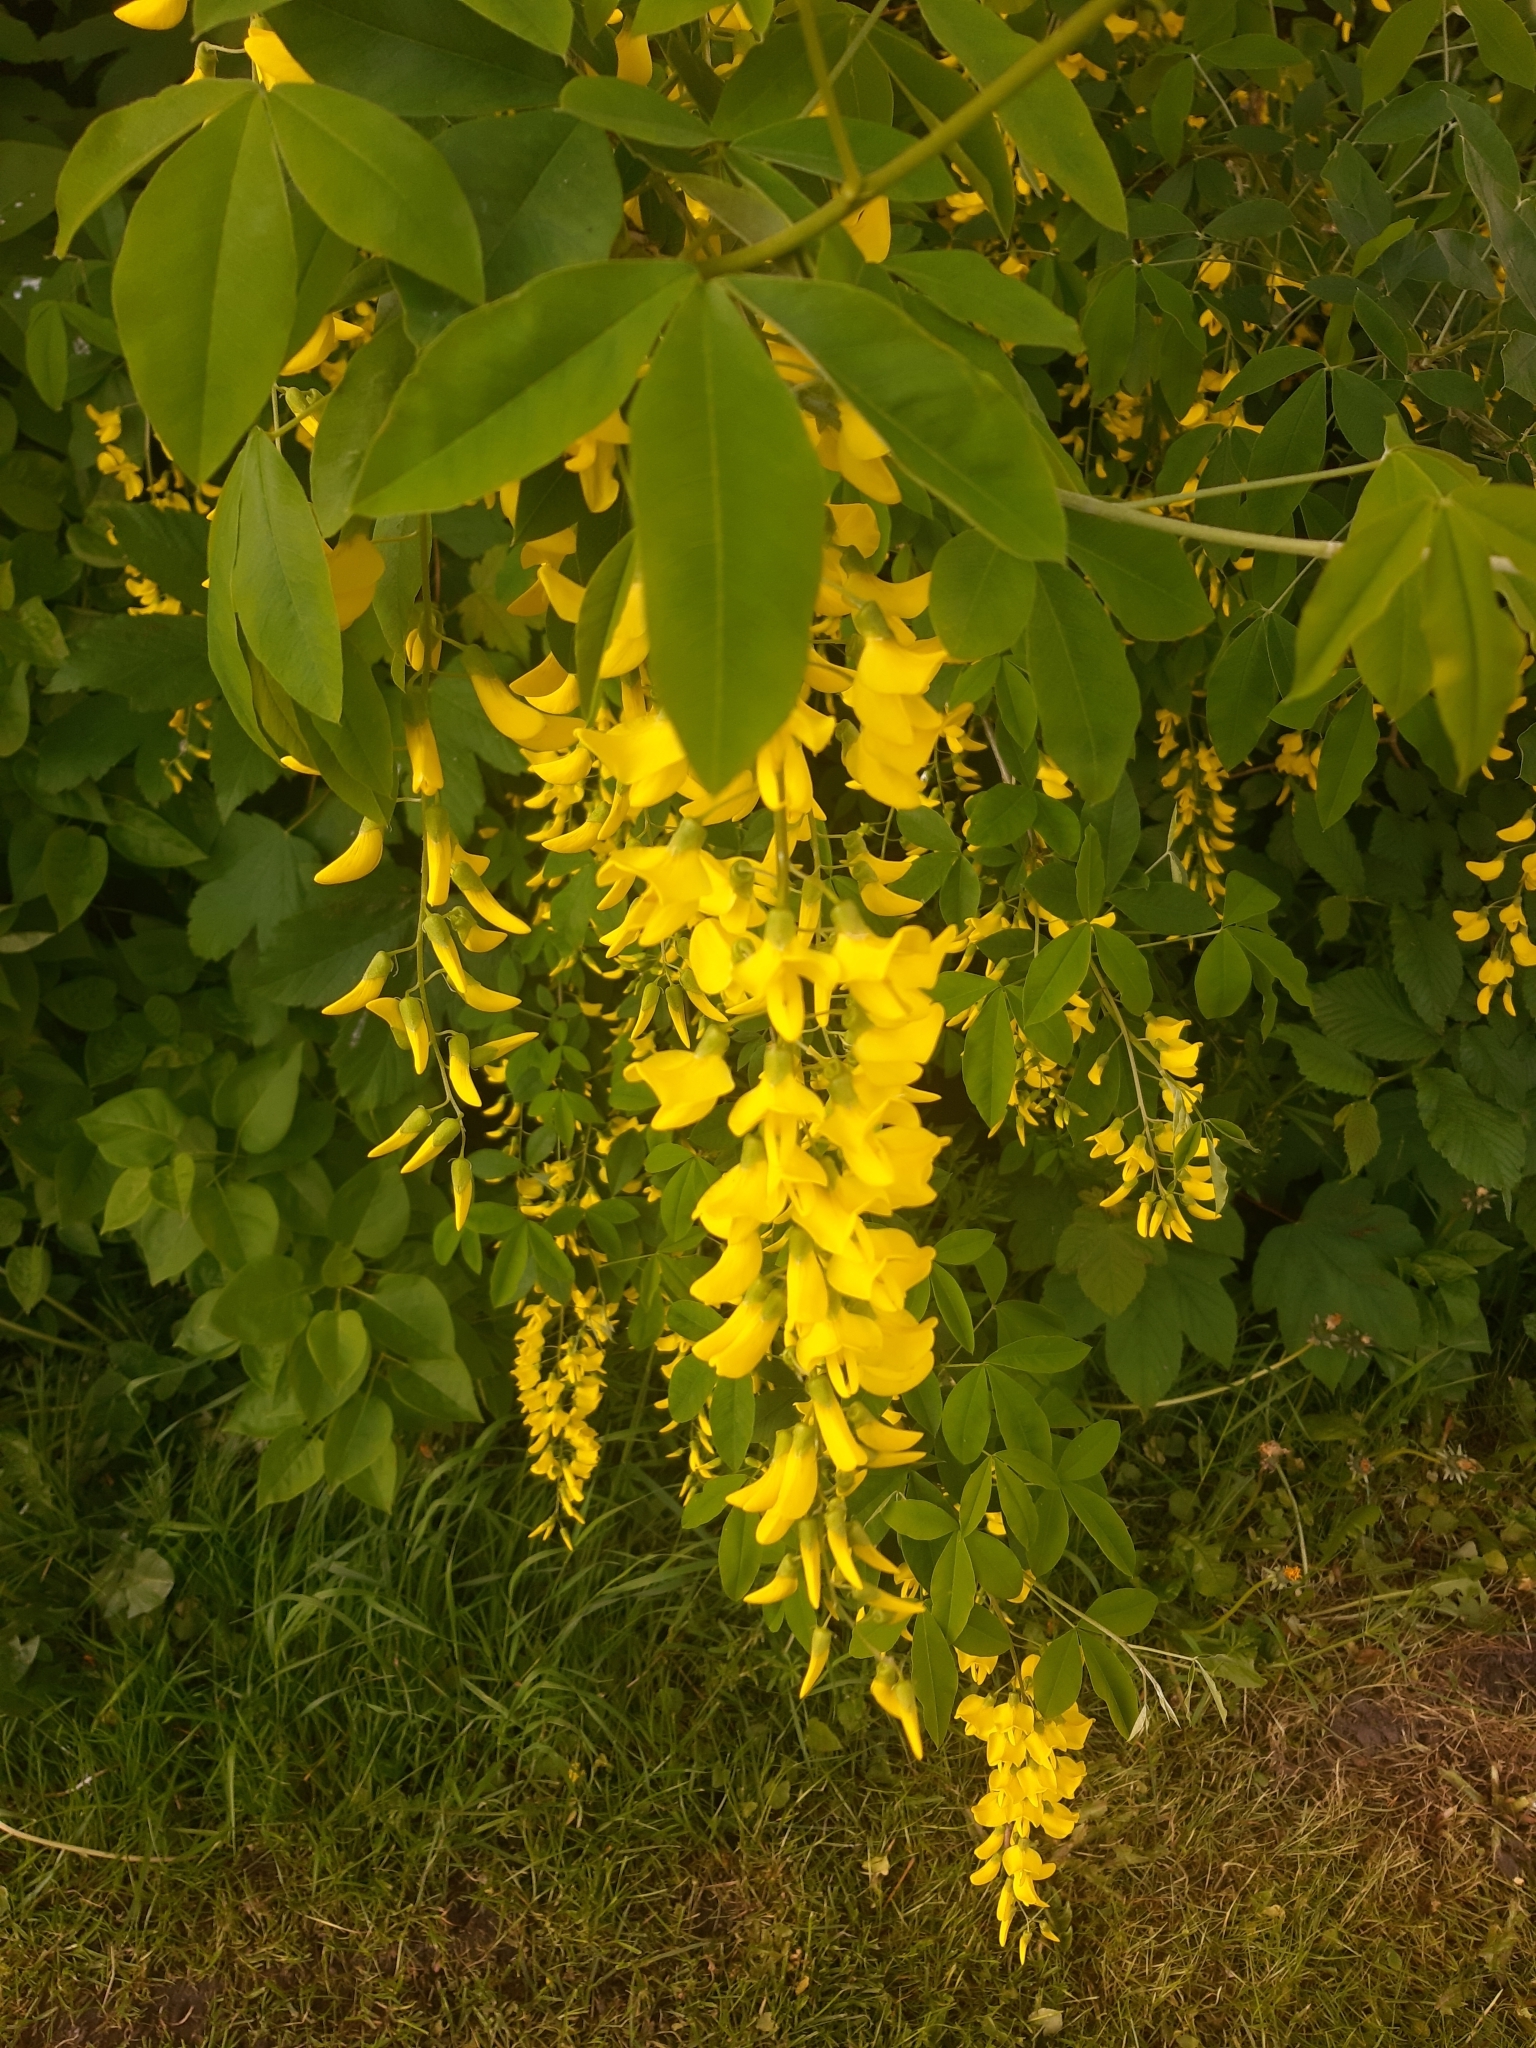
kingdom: Plantae
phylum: Tracheophyta
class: Magnoliopsida
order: Fabales
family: Fabaceae
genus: Laburnum
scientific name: Laburnum anagyroides
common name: Laburnum
